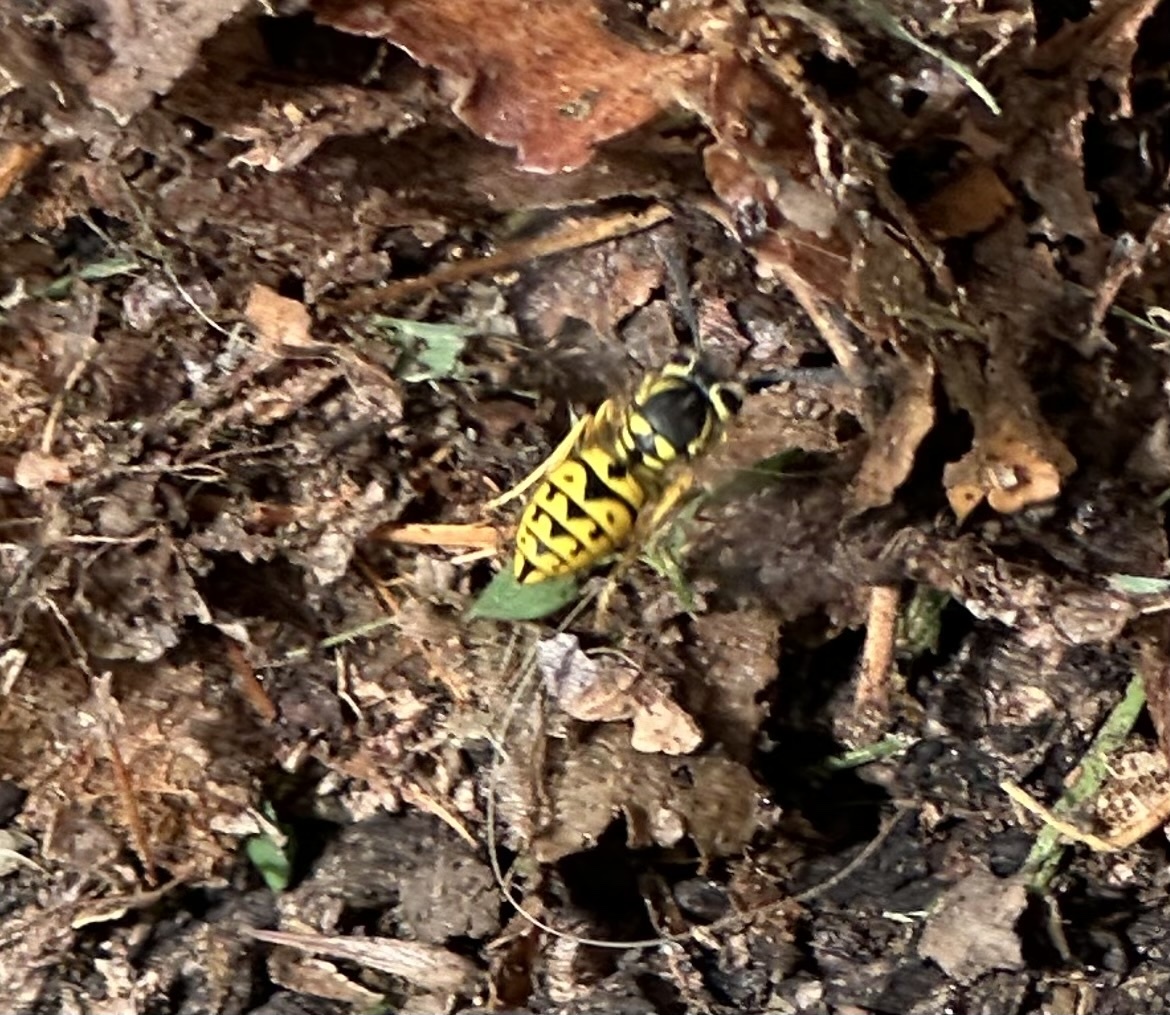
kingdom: Animalia
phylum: Arthropoda
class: Insecta
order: Hymenoptera
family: Vespidae
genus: Vespula
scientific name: Vespula pensylvanica
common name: Western yellowjacket
